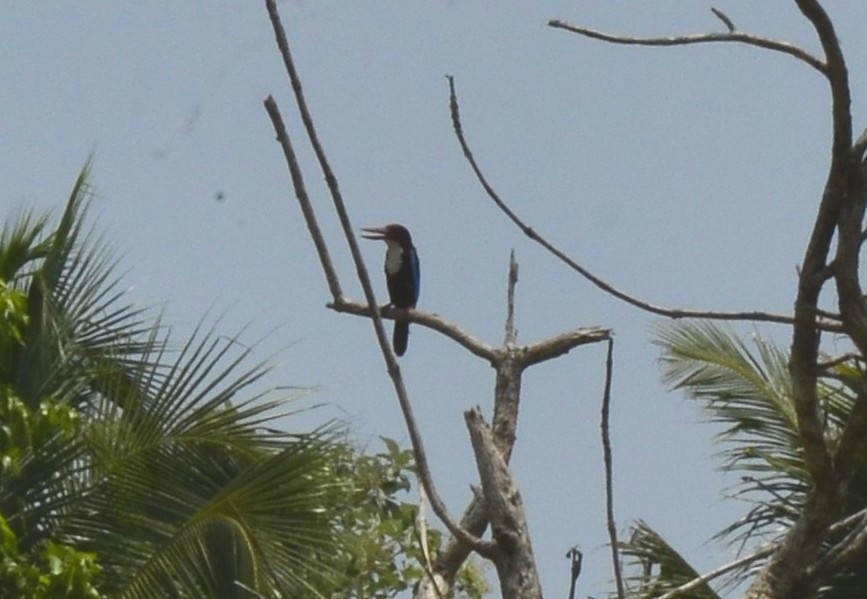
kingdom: Animalia
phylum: Chordata
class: Aves
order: Coraciiformes
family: Alcedinidae
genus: Halcyon
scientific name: Halcyon smyrnensis
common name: White-throated kingfisher
